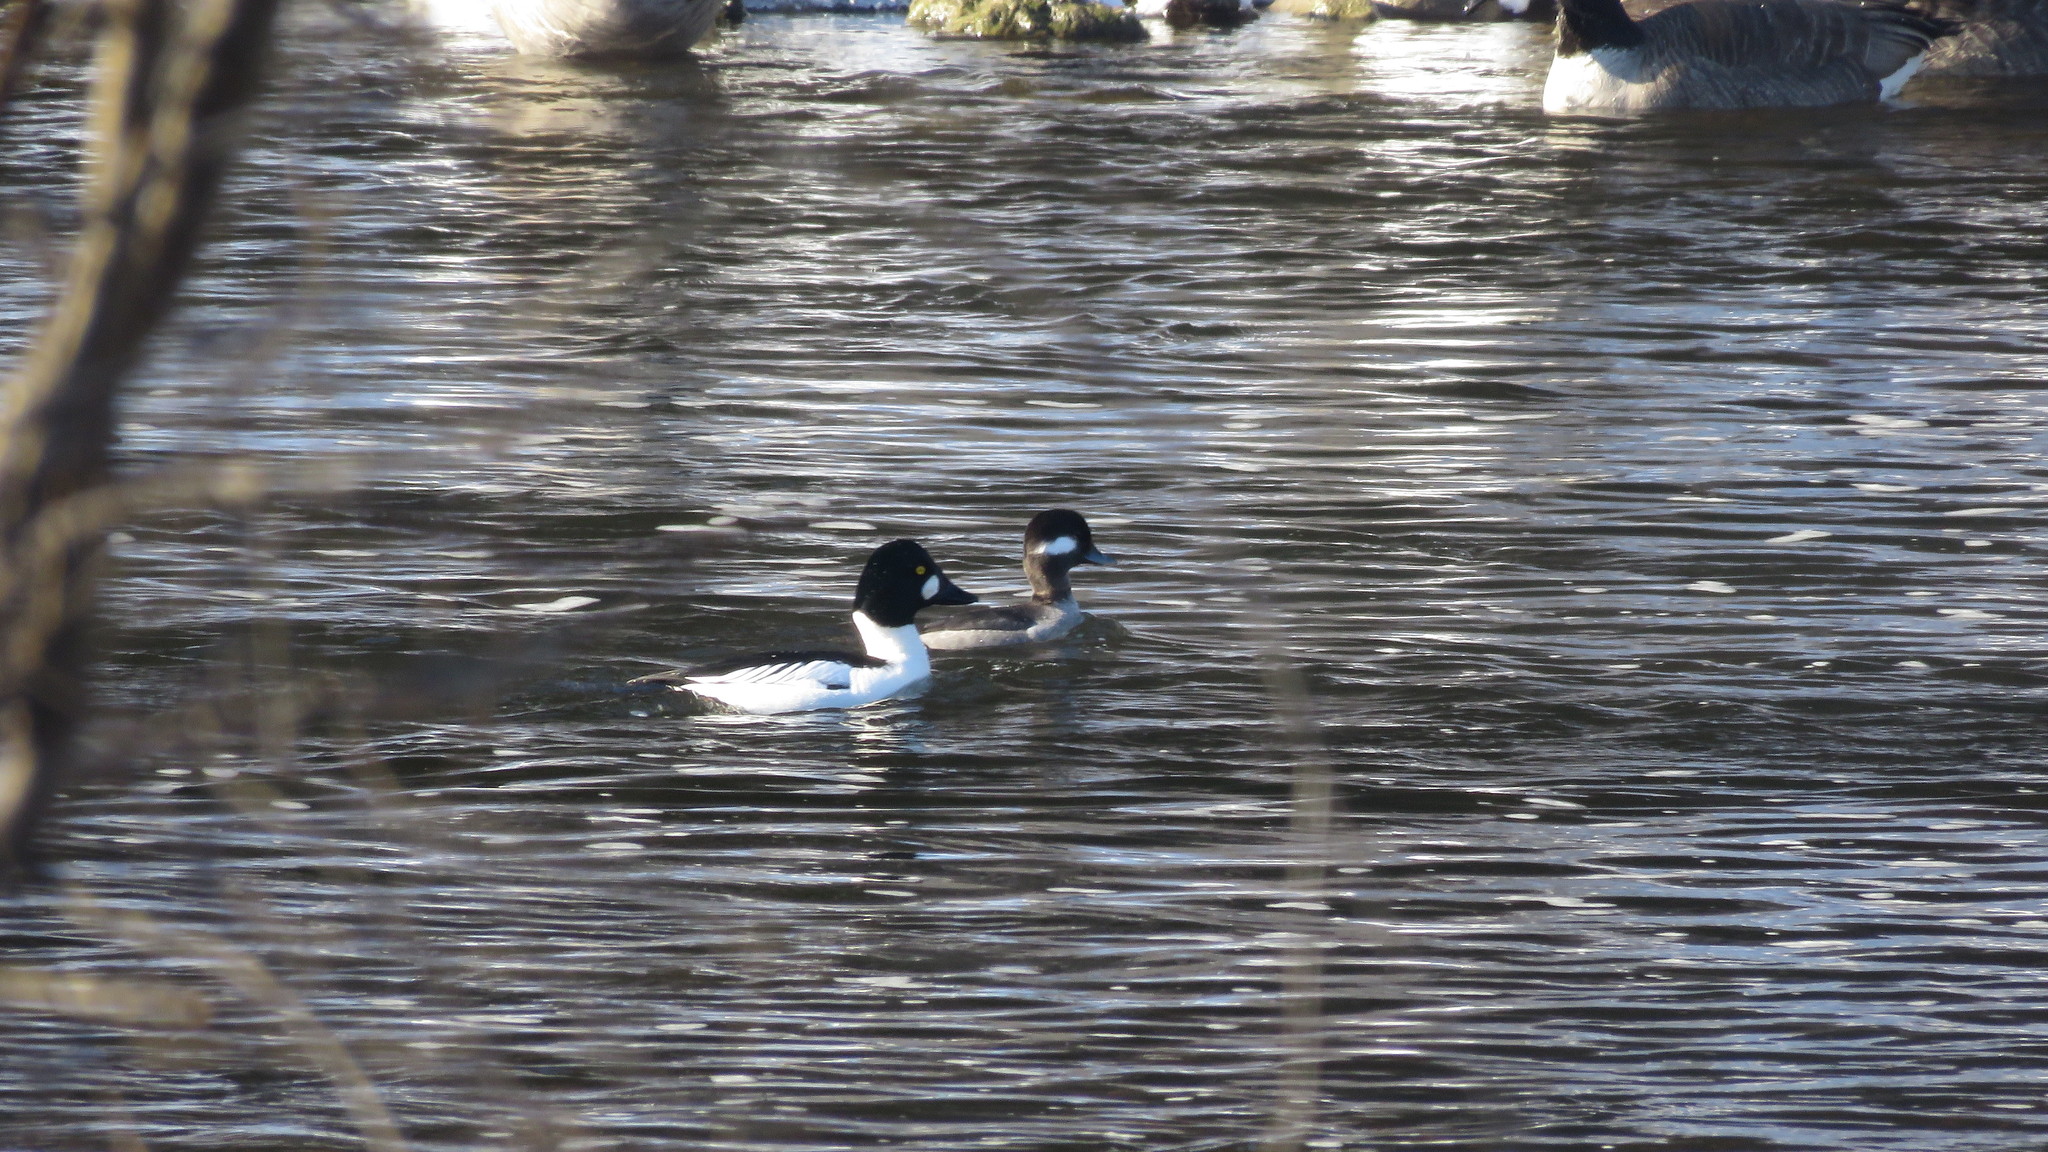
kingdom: Animalia
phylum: Chordata
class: Aves
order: Anseriformes
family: Anatidae
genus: Bucephala
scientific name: Bucephala clangula
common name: Common goldeneye
